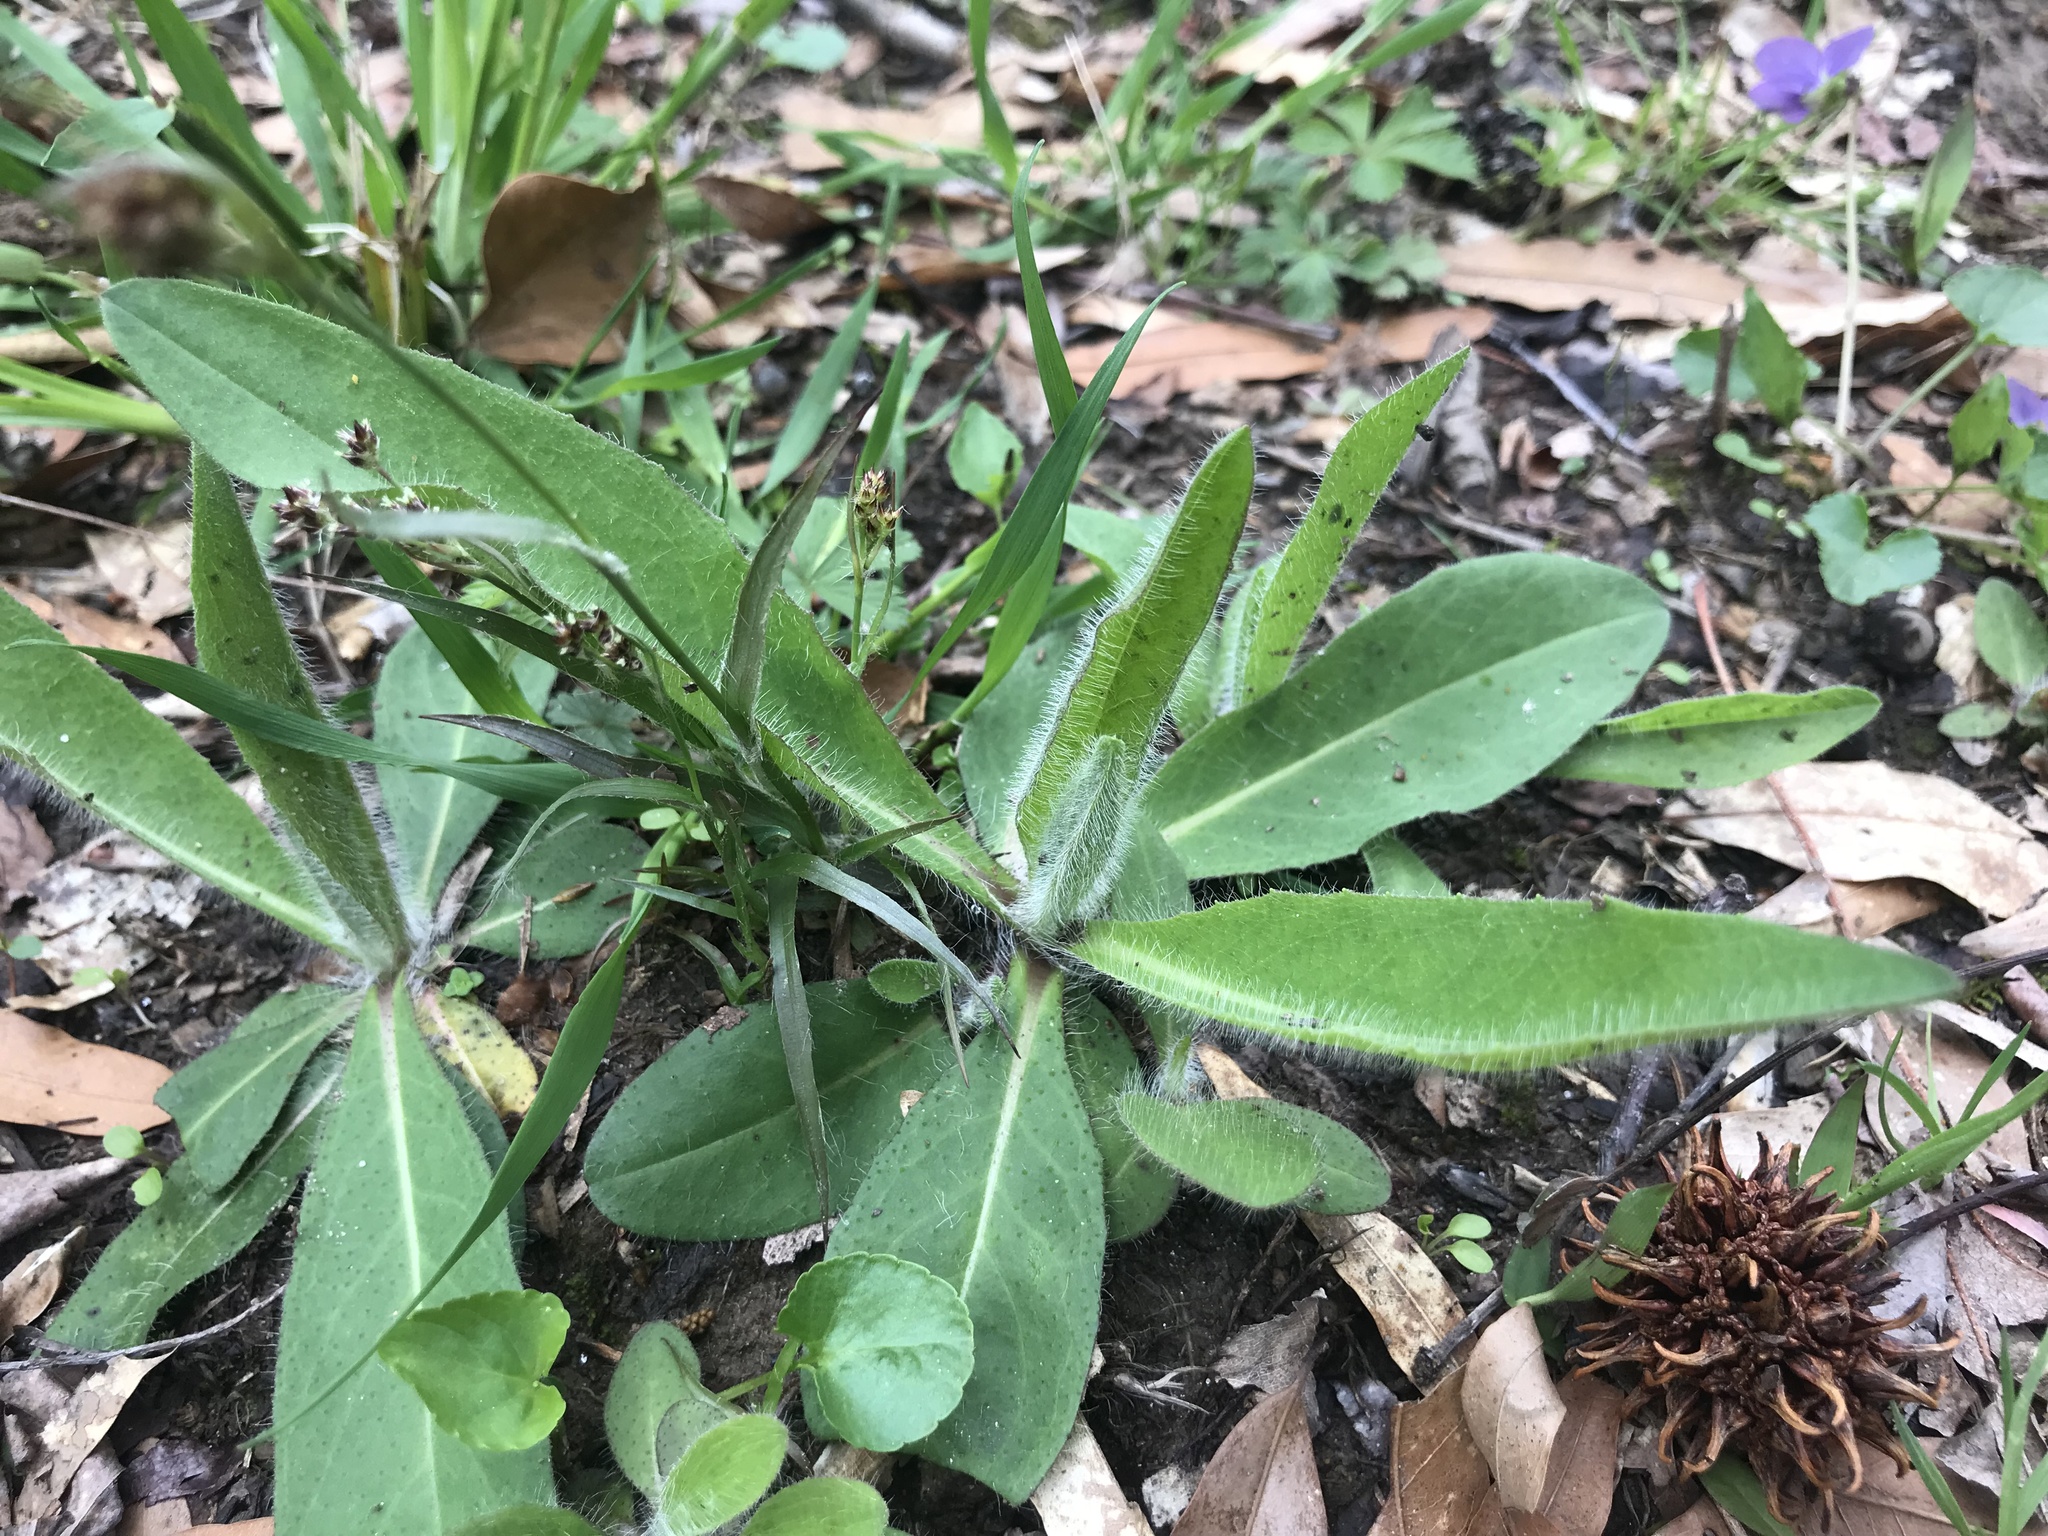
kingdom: Plantae
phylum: Tracheophyta
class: Magnoliopsida
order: Asterales
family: Asteraceae
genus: Pilosella
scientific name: Pilosella caespitosa
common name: Yellow fox-and-cubs
